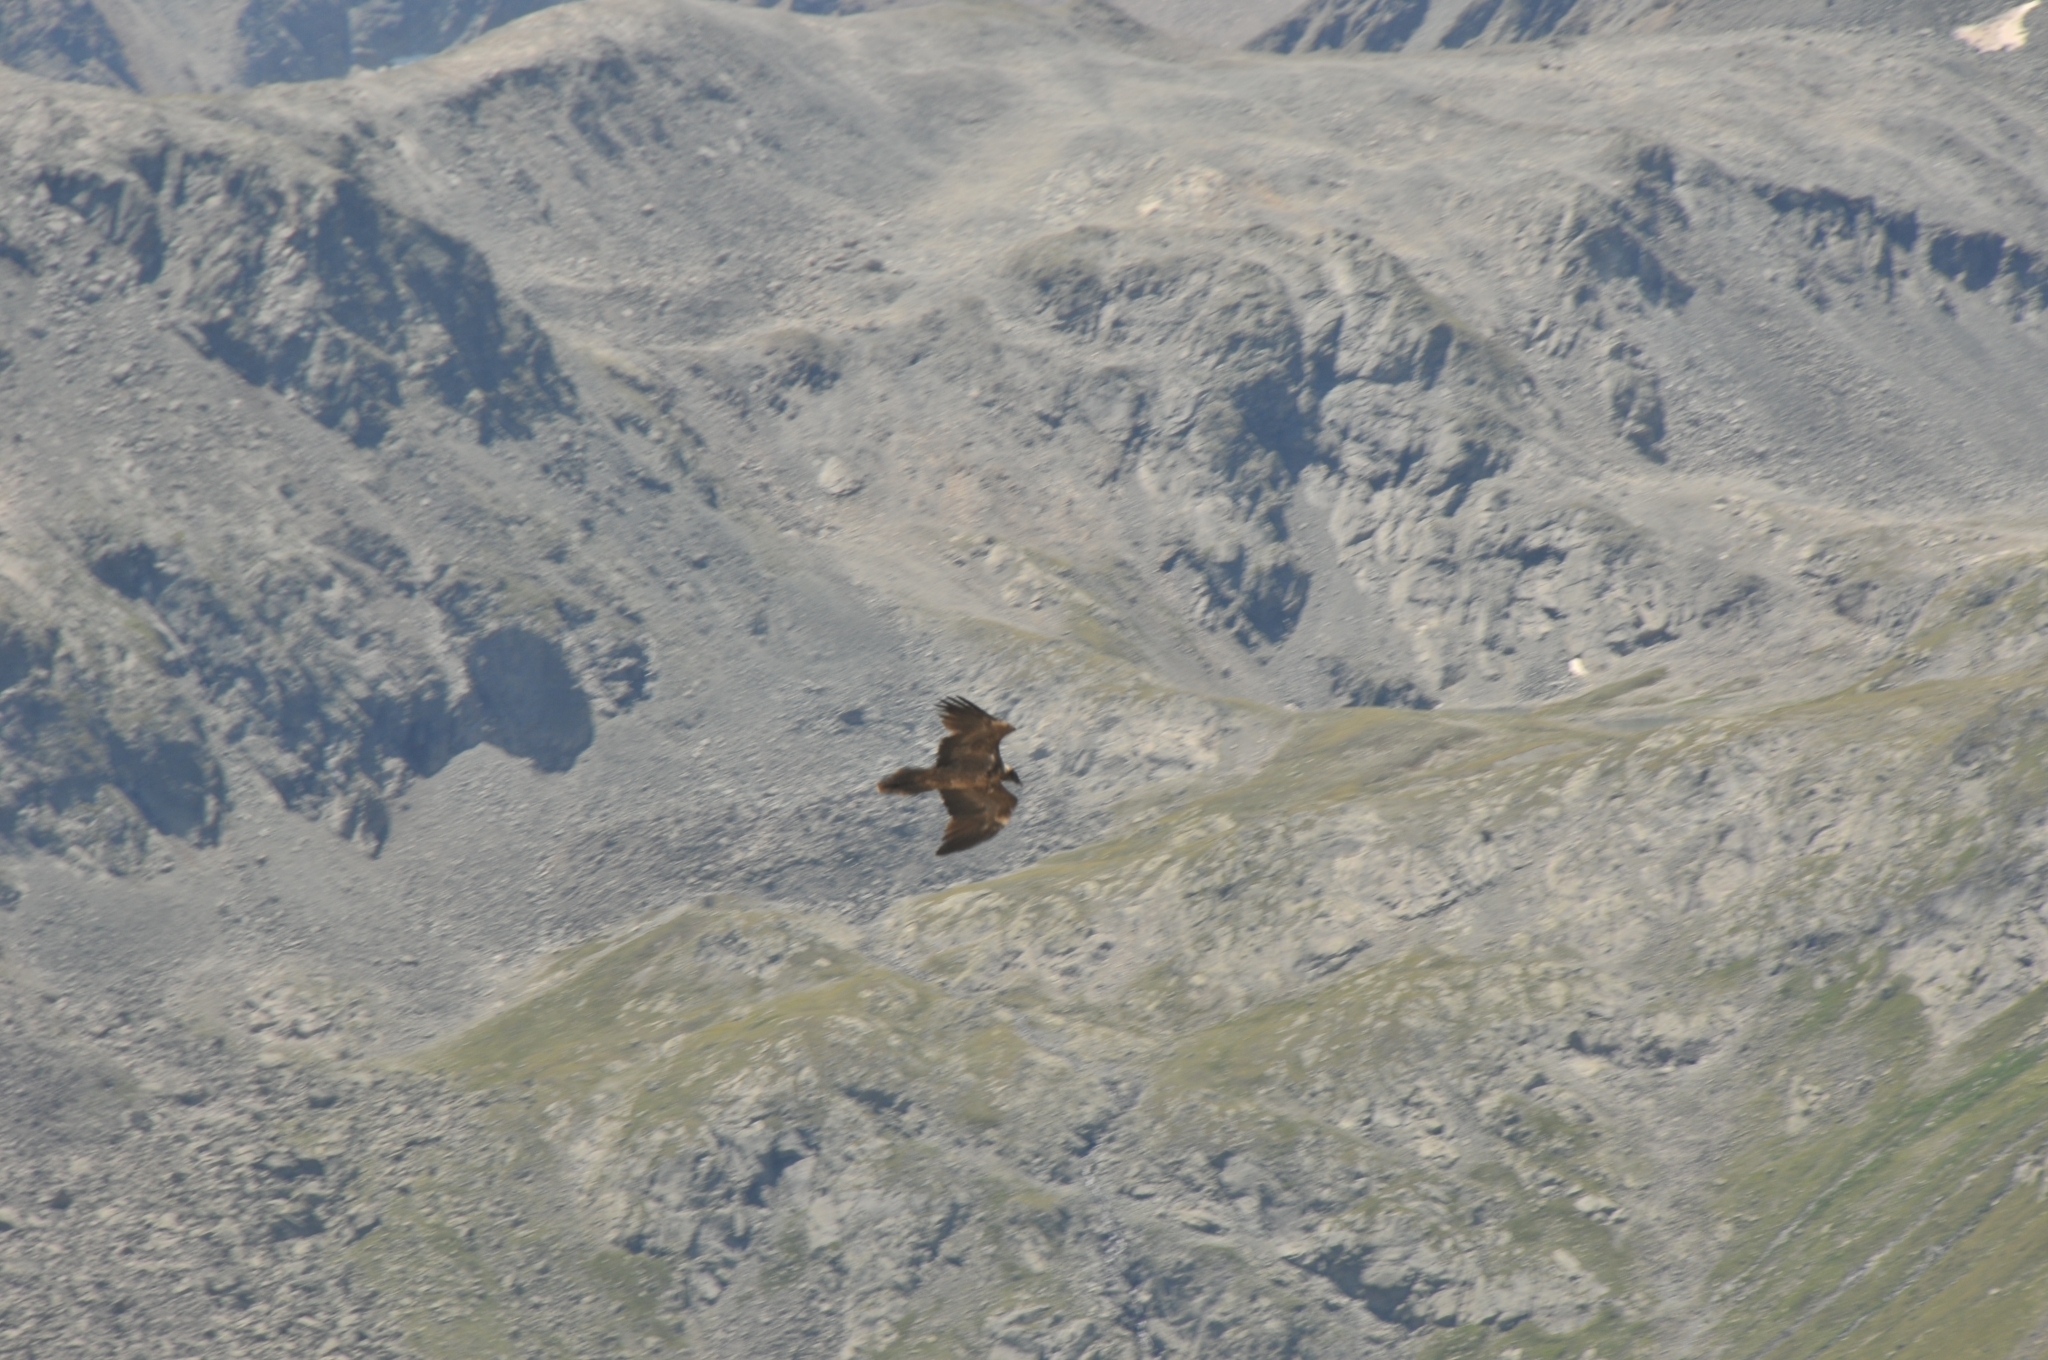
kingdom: Animalia
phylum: Chordata
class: Aves
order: Accipitriformes
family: Accipitridae
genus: Gypaetus
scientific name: Gypaetus barbatus
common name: Bearded vulture
